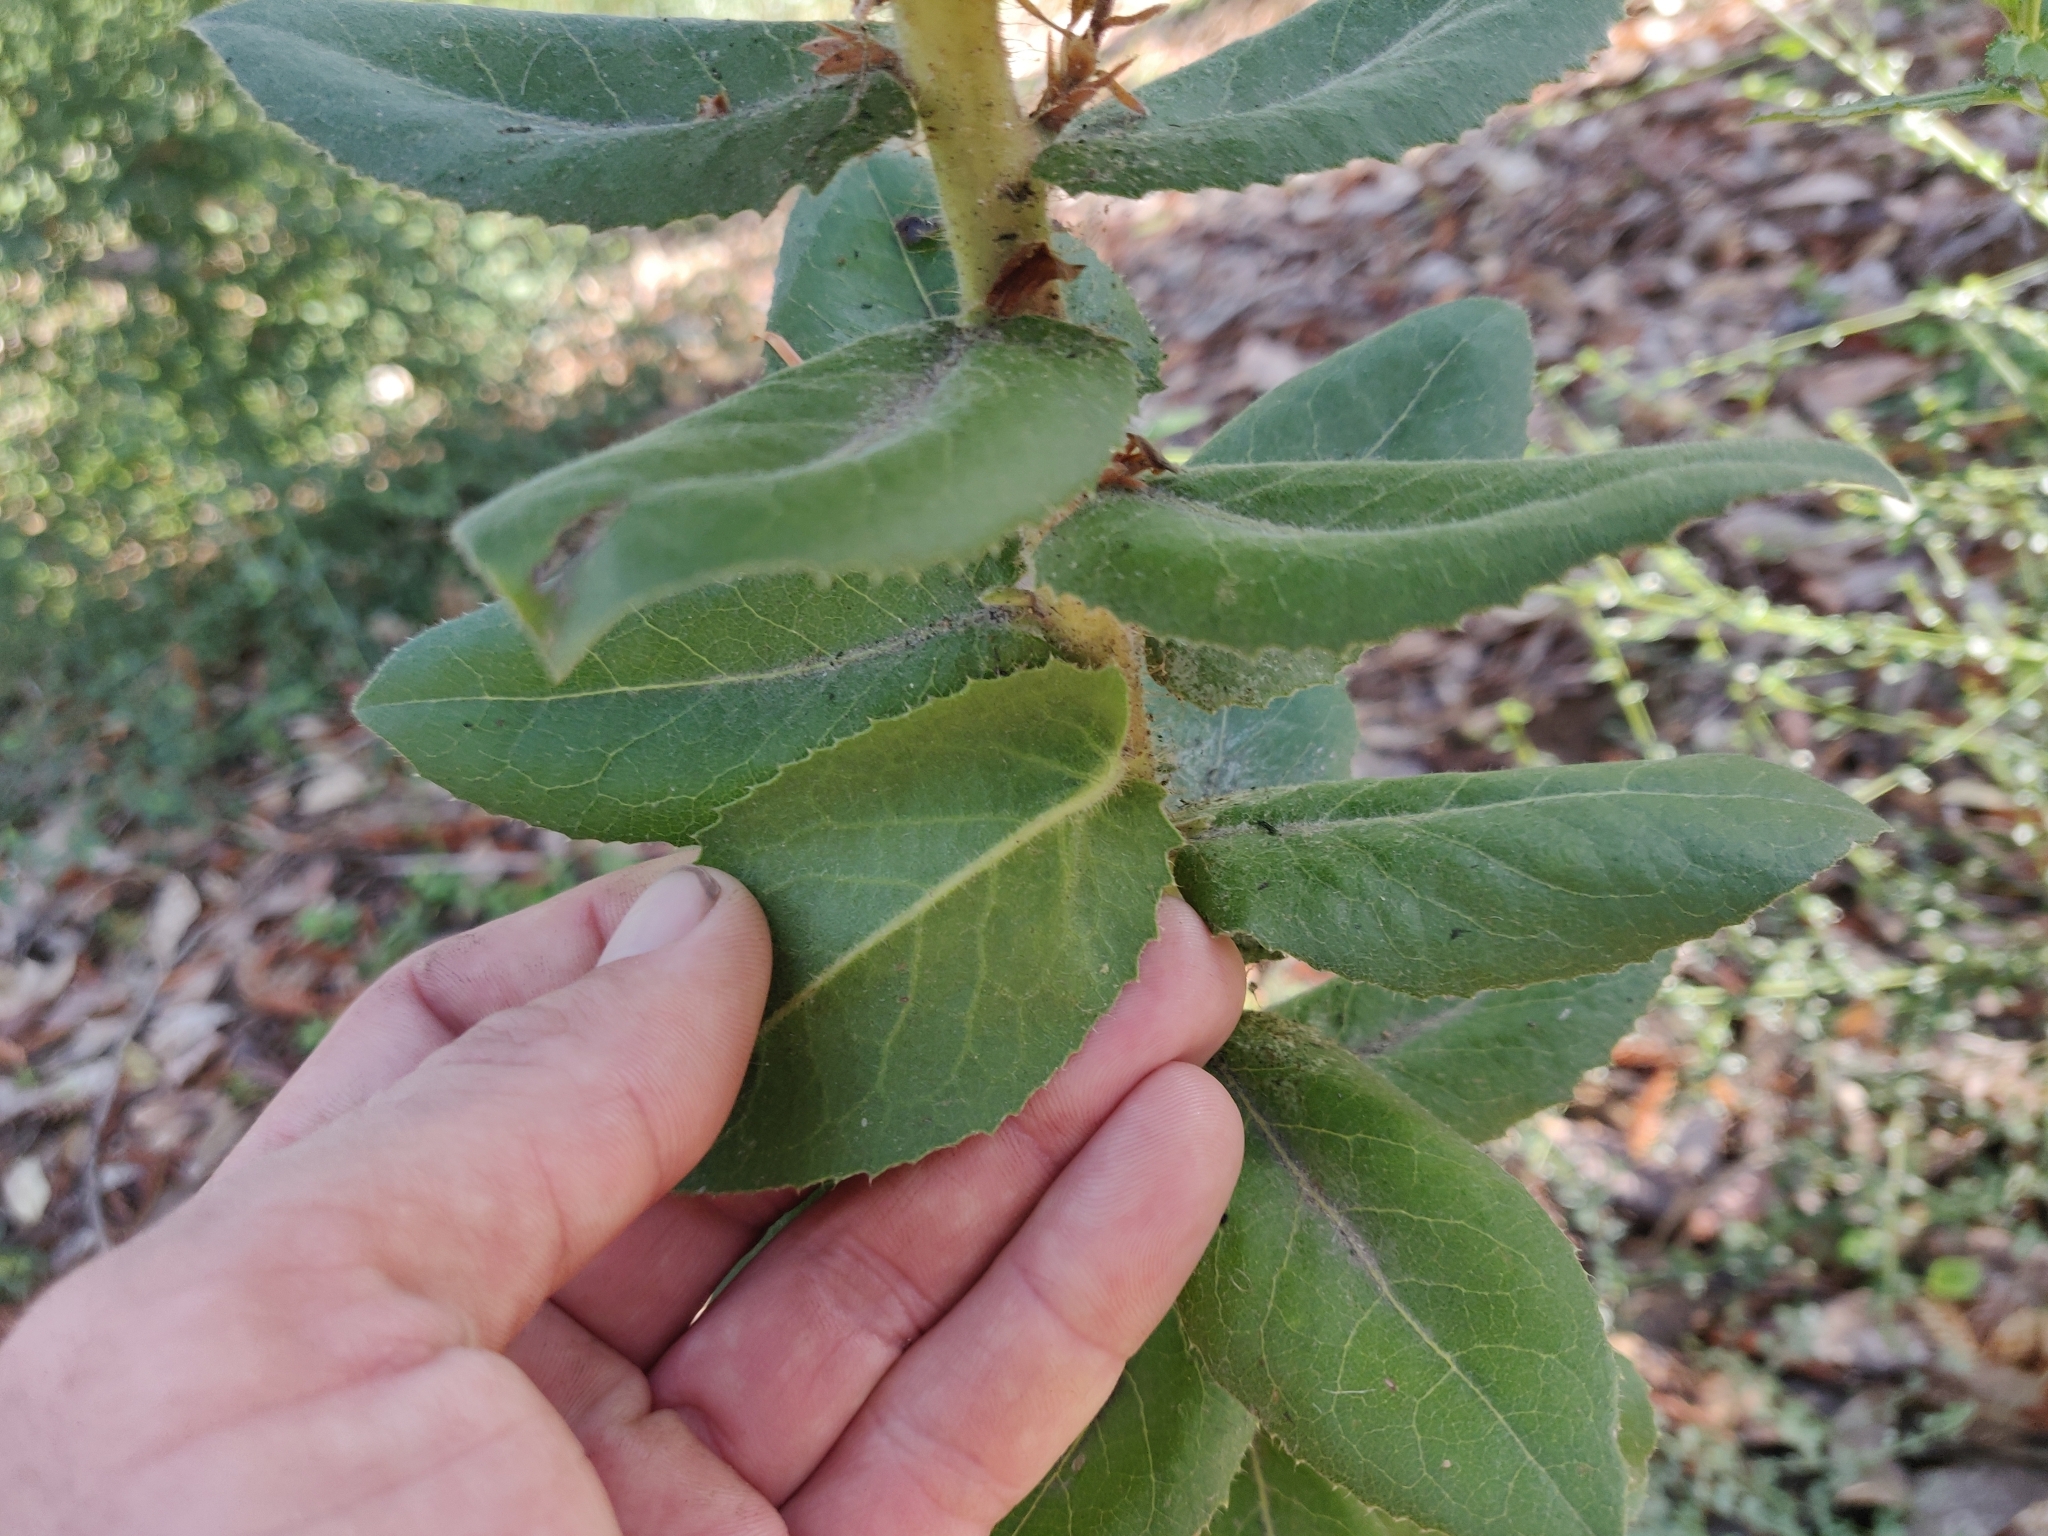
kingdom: Plantae
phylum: Tracheophyta
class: Magnoliopsida
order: Ericales
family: Ericaceae
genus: Arctostaphylos
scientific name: Arctostaphylos andersonii
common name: Santa cruz manzanita
